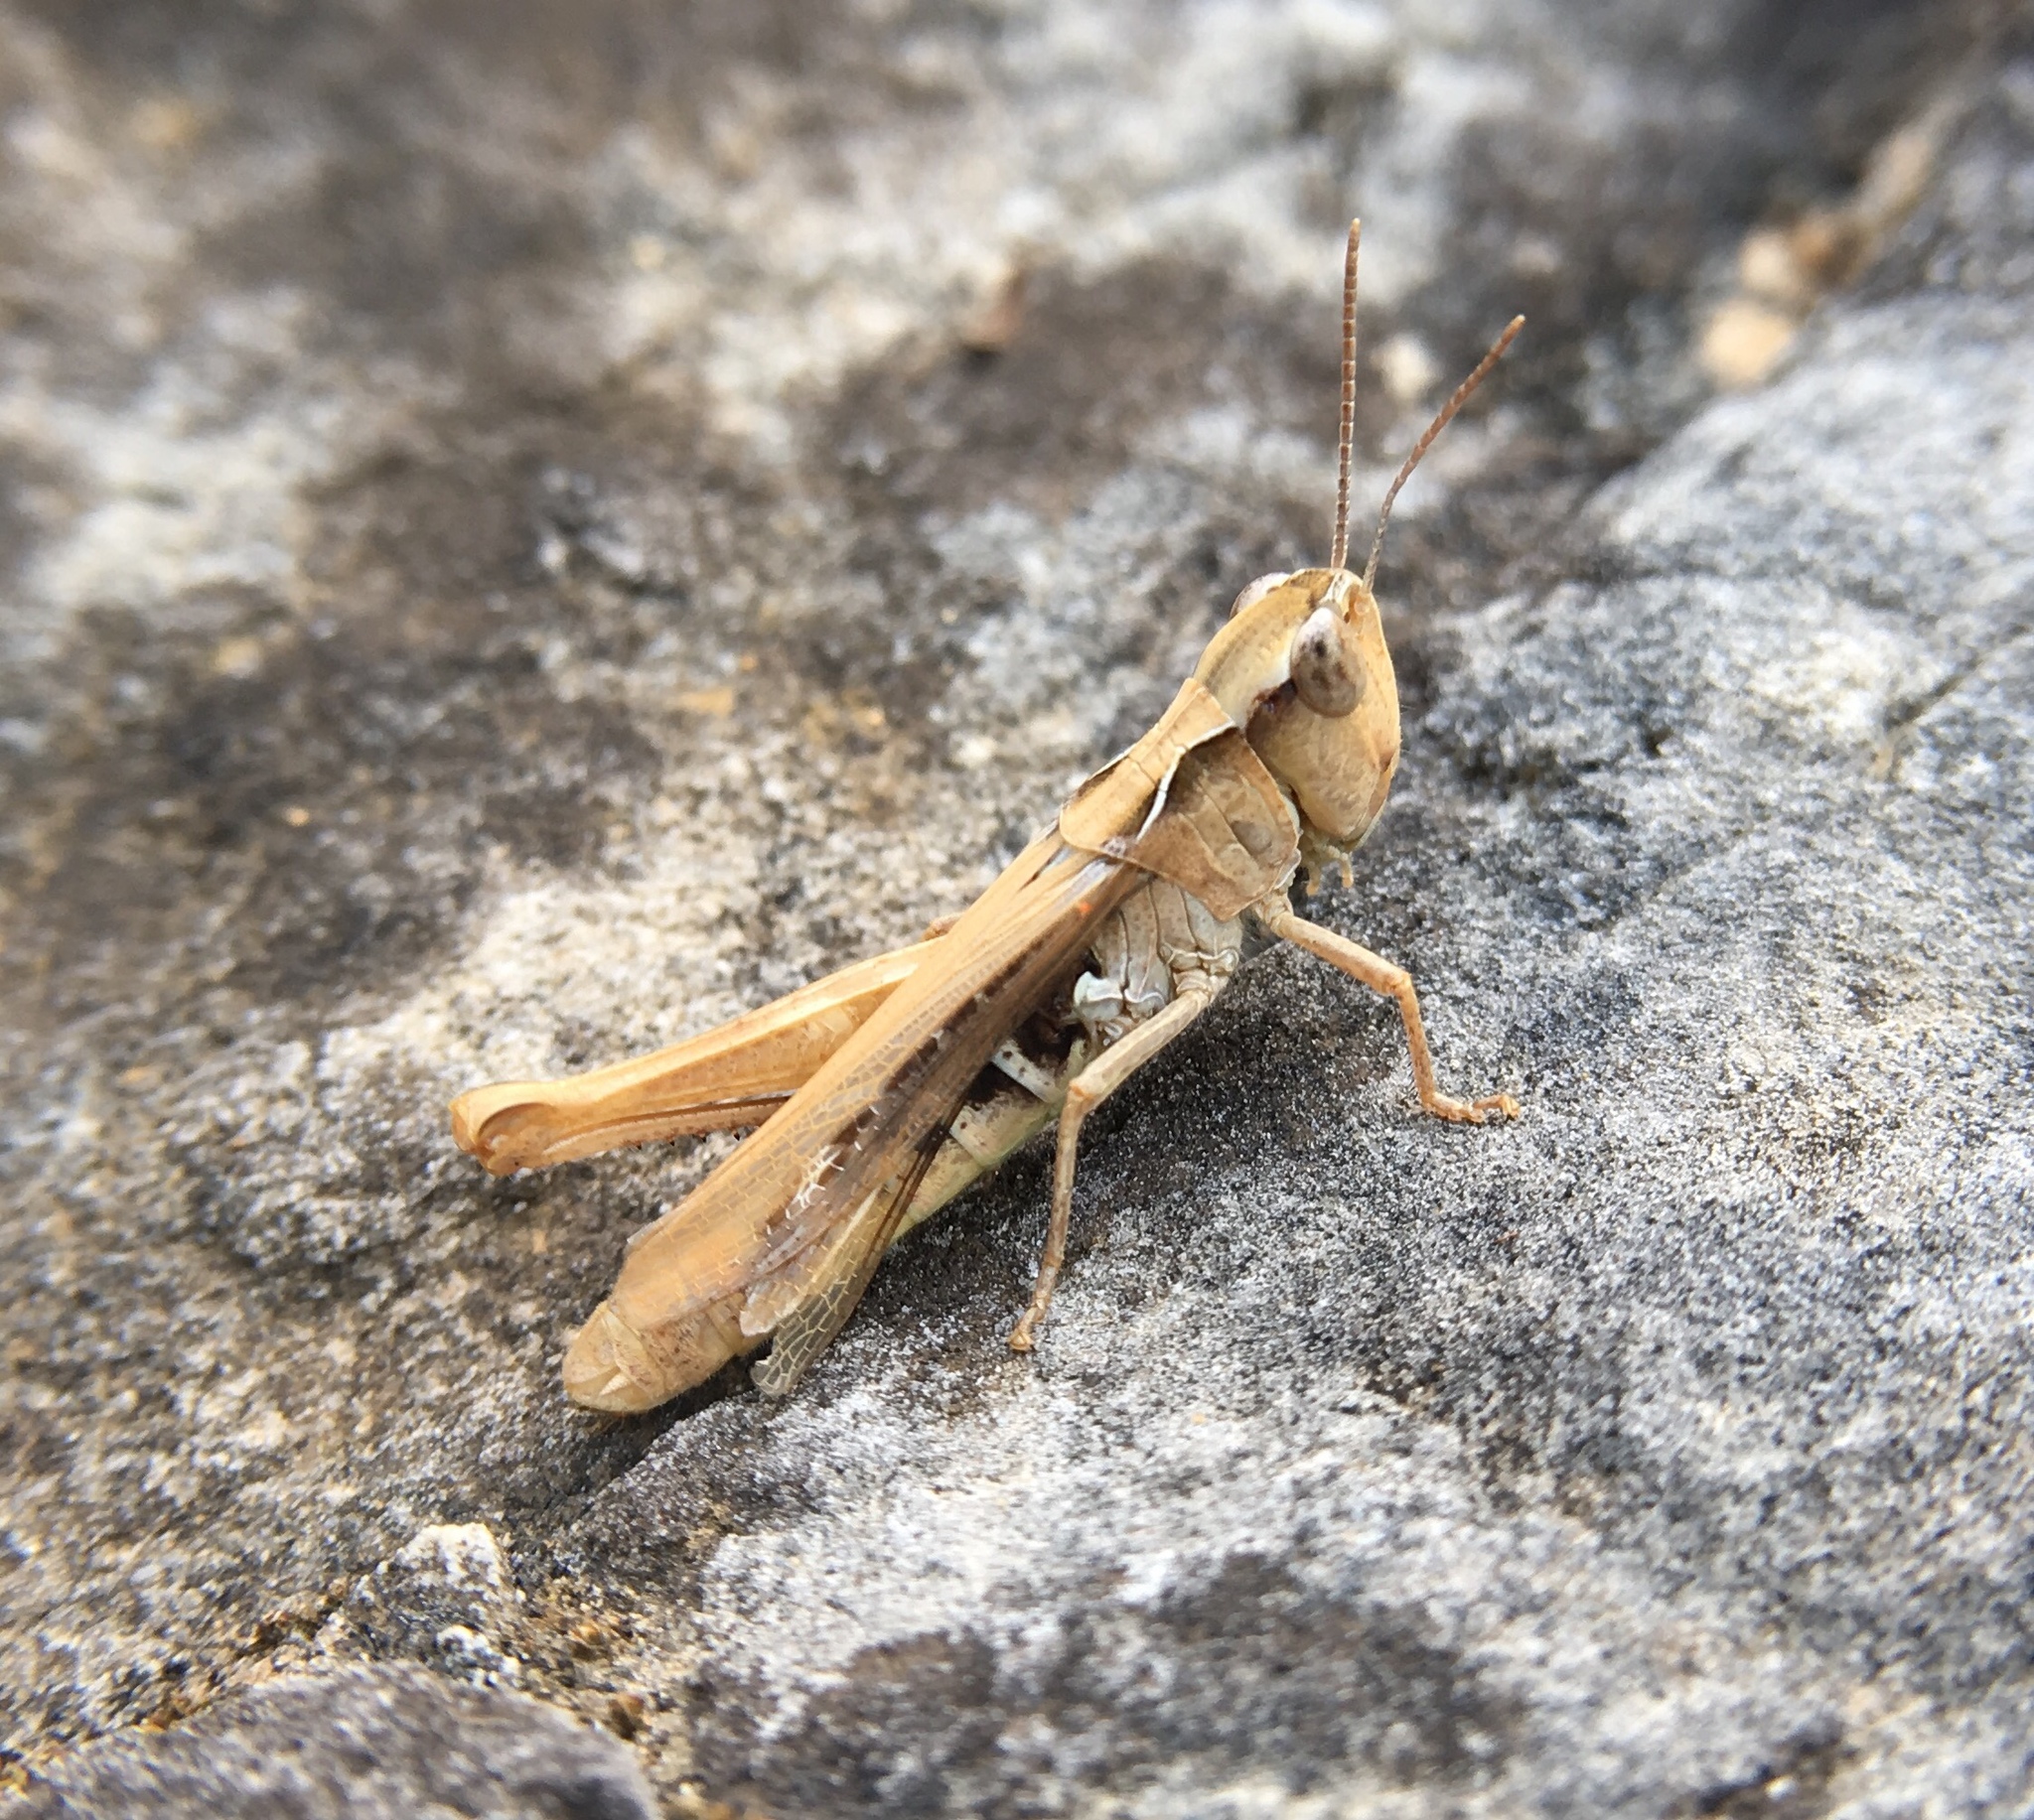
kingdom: Animalia
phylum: Arthropoda
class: Insecta
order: Orthoptera
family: Acrididae
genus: Chorthippus
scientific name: Chorthippus mollis
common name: Lesser field grasshopper
